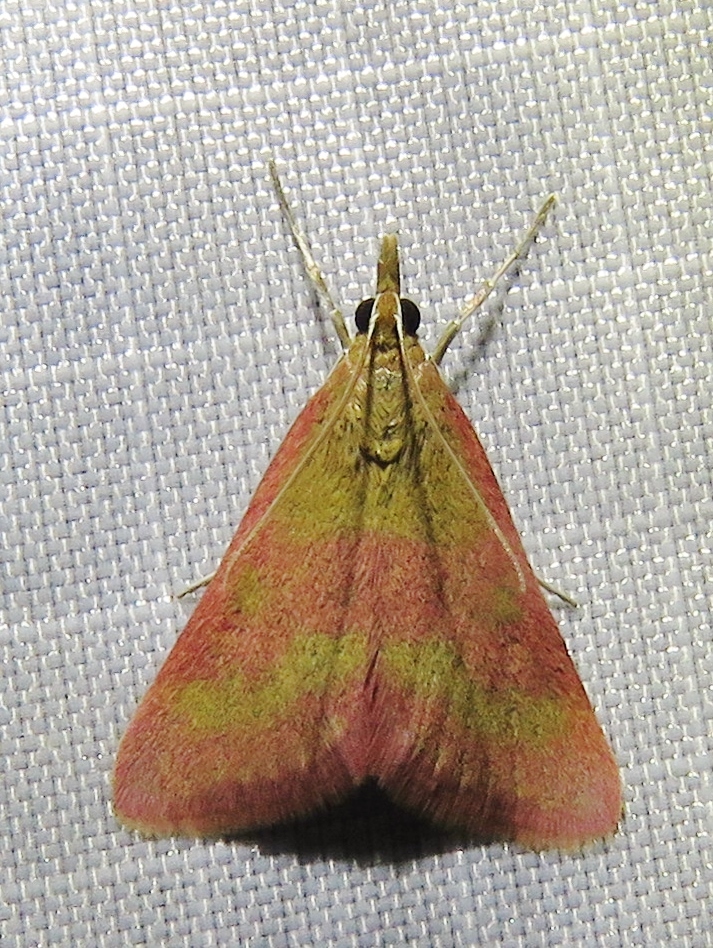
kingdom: Animalia
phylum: Arthropoda
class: Insecta
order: Lepidoptera
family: Crambidae
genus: Pyrausta
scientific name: Pyrausta laticlavia
